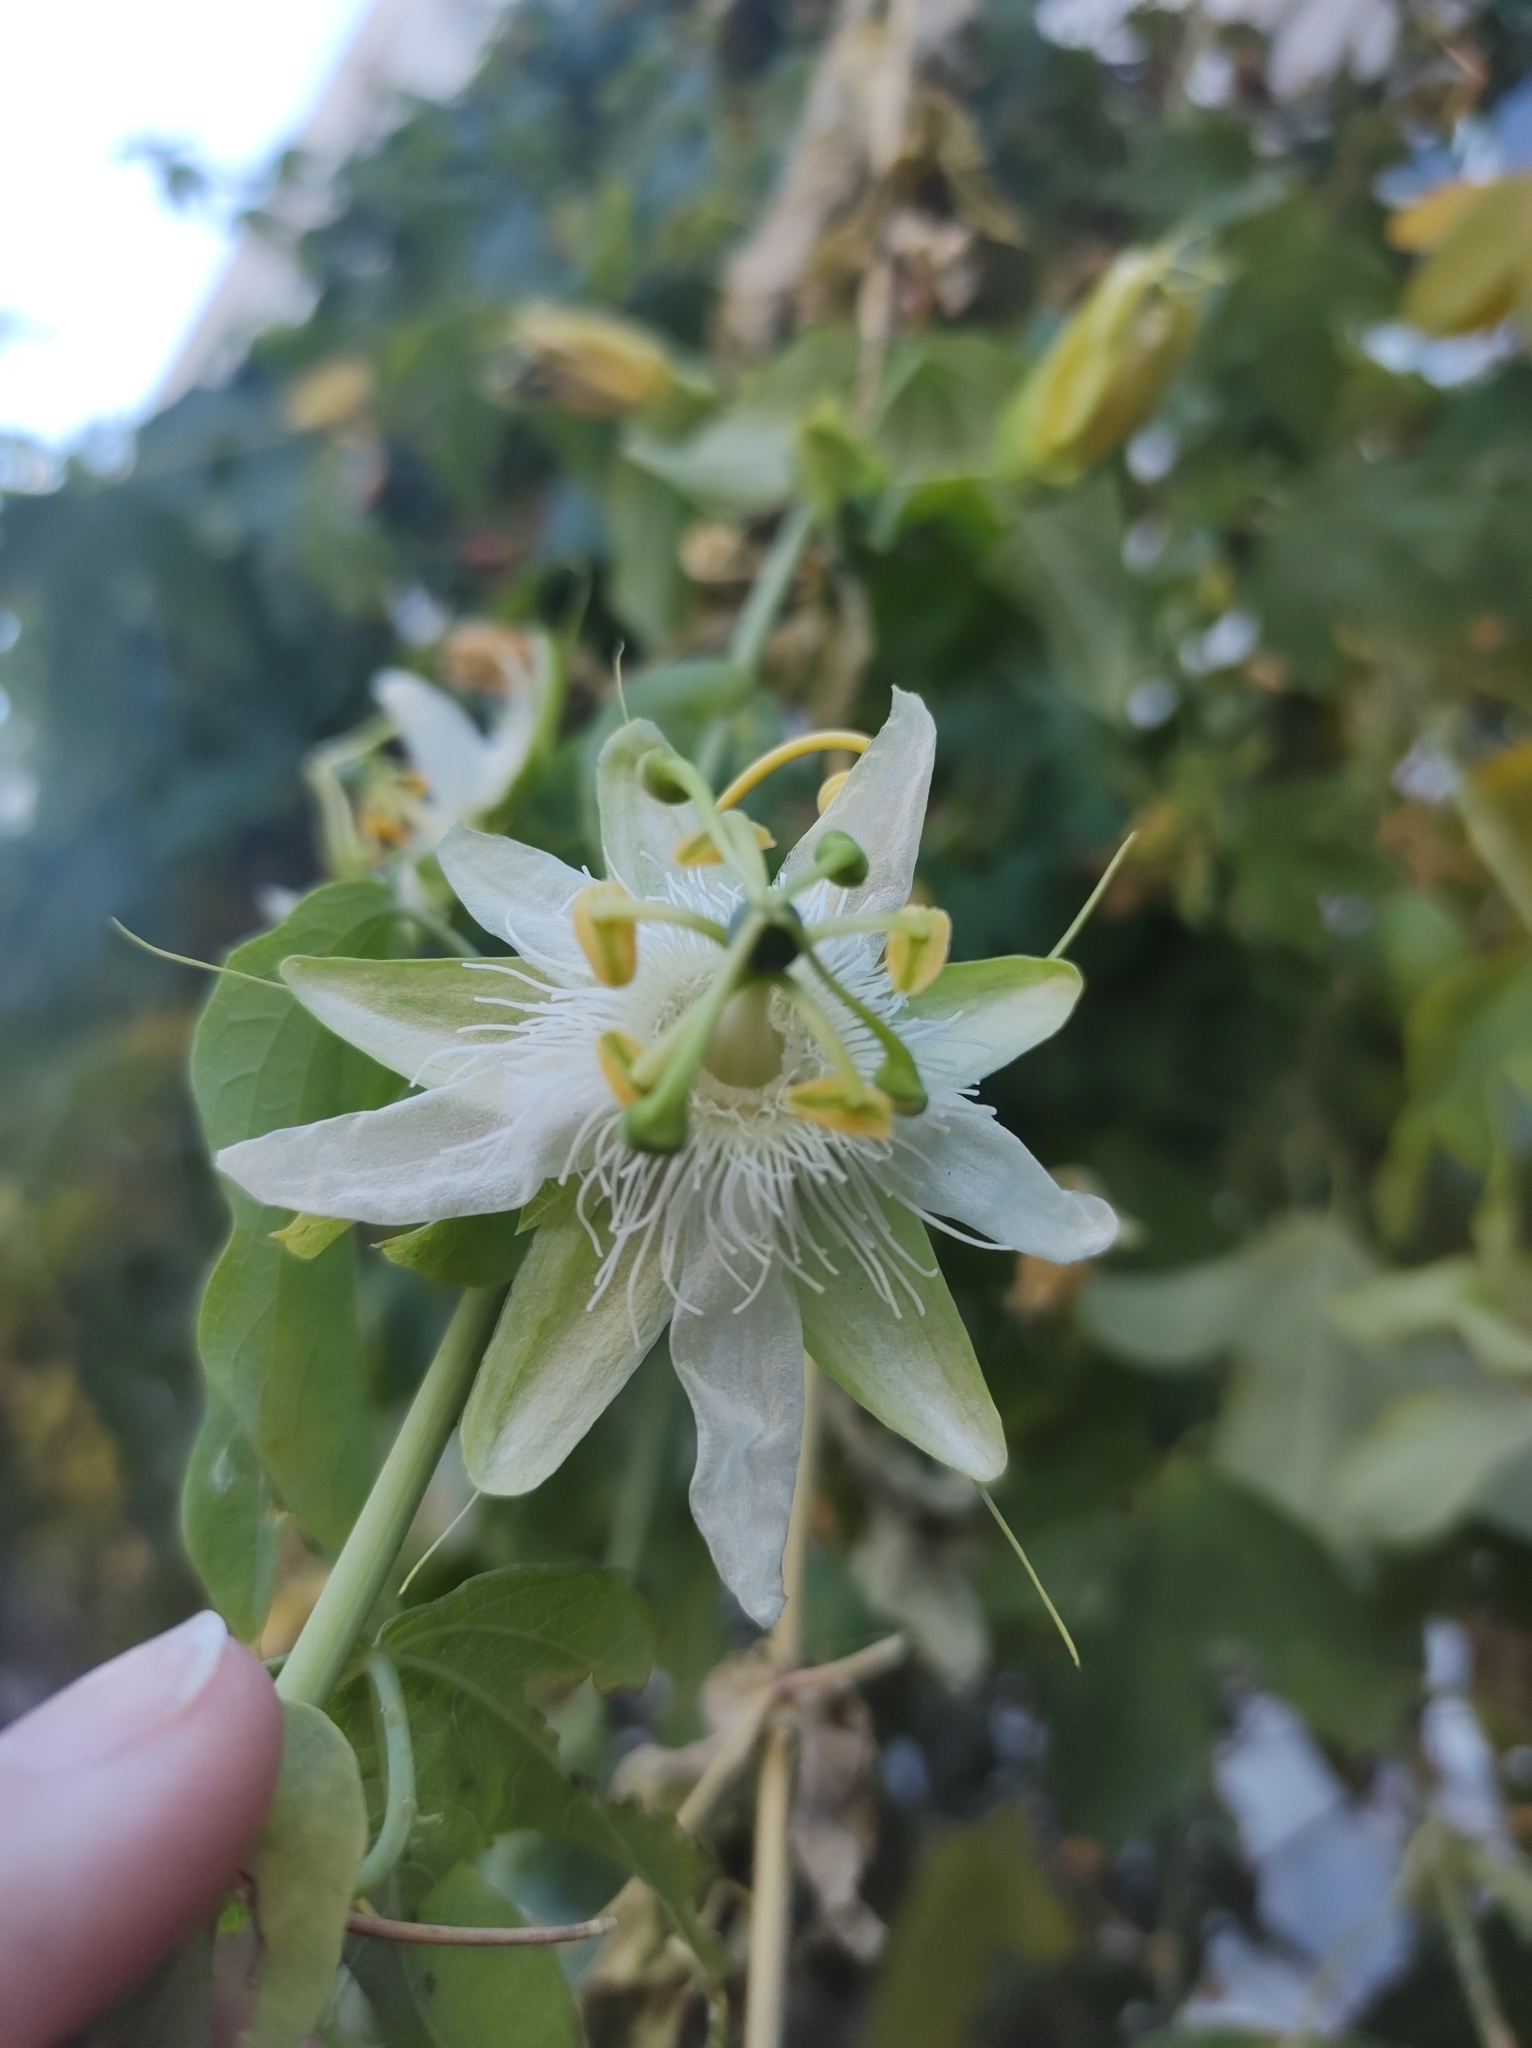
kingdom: Plantae
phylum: Tracheophyta
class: Magnoliopsida
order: Malpighiales
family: Passifloraceae
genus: Passiflora
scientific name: Passiflora subpeltata
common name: White passionflower
